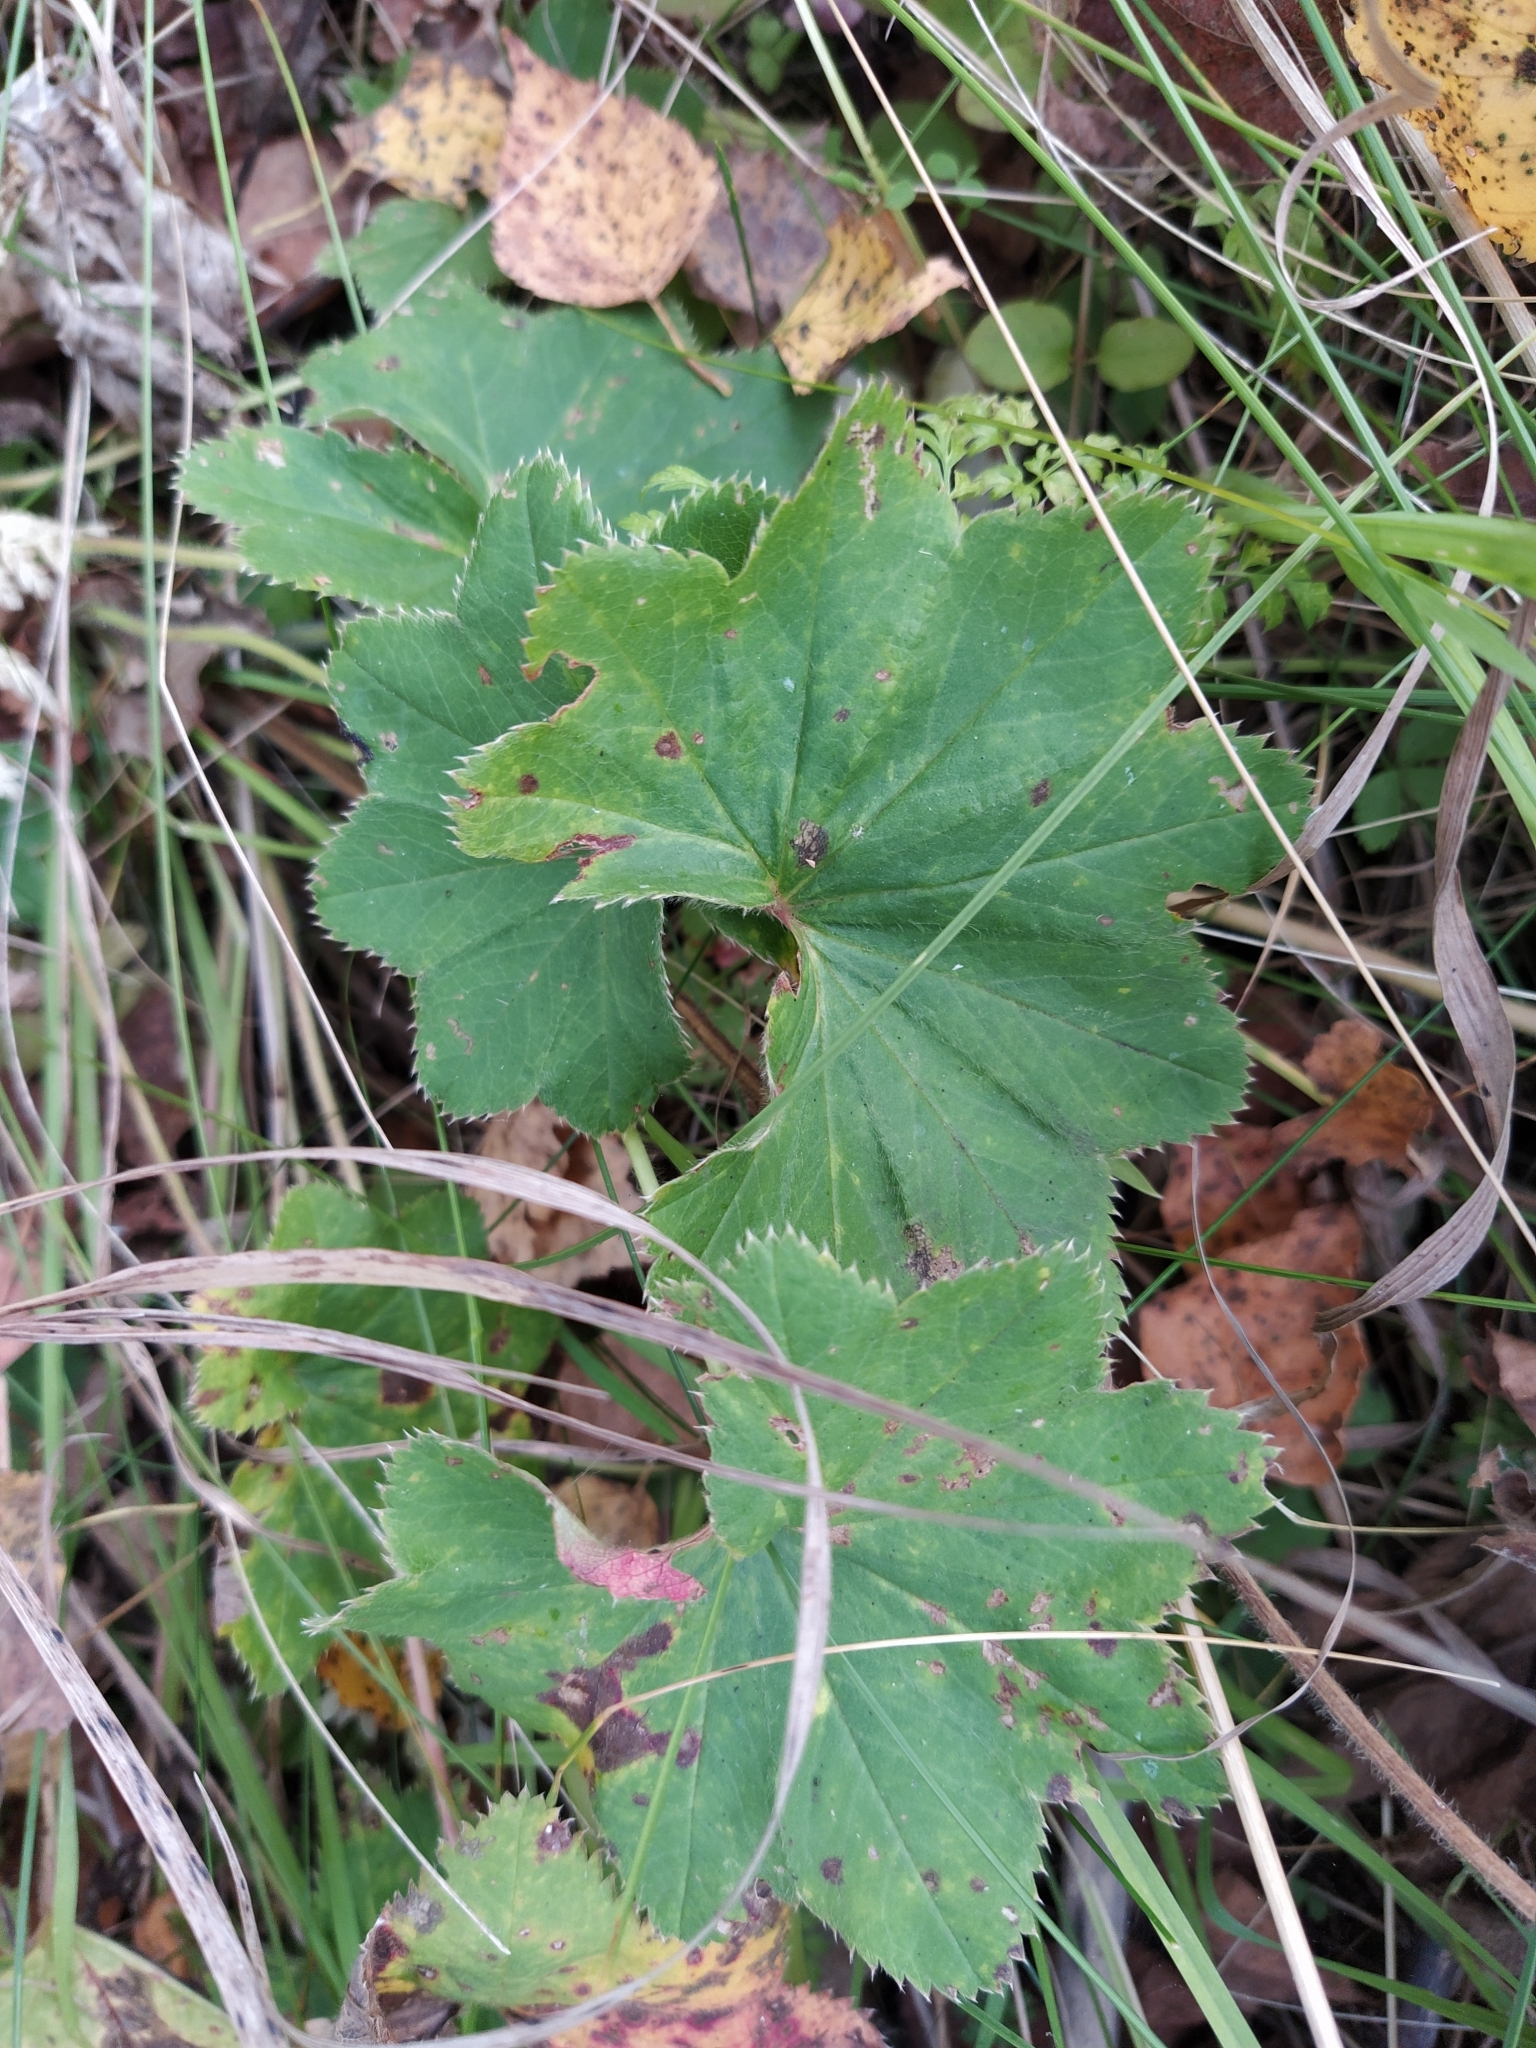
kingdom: Plantae
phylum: Tracheophyta
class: Magnoliopsida
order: Rosales
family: Rosaceae
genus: Alchemilla
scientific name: Alchemilla
